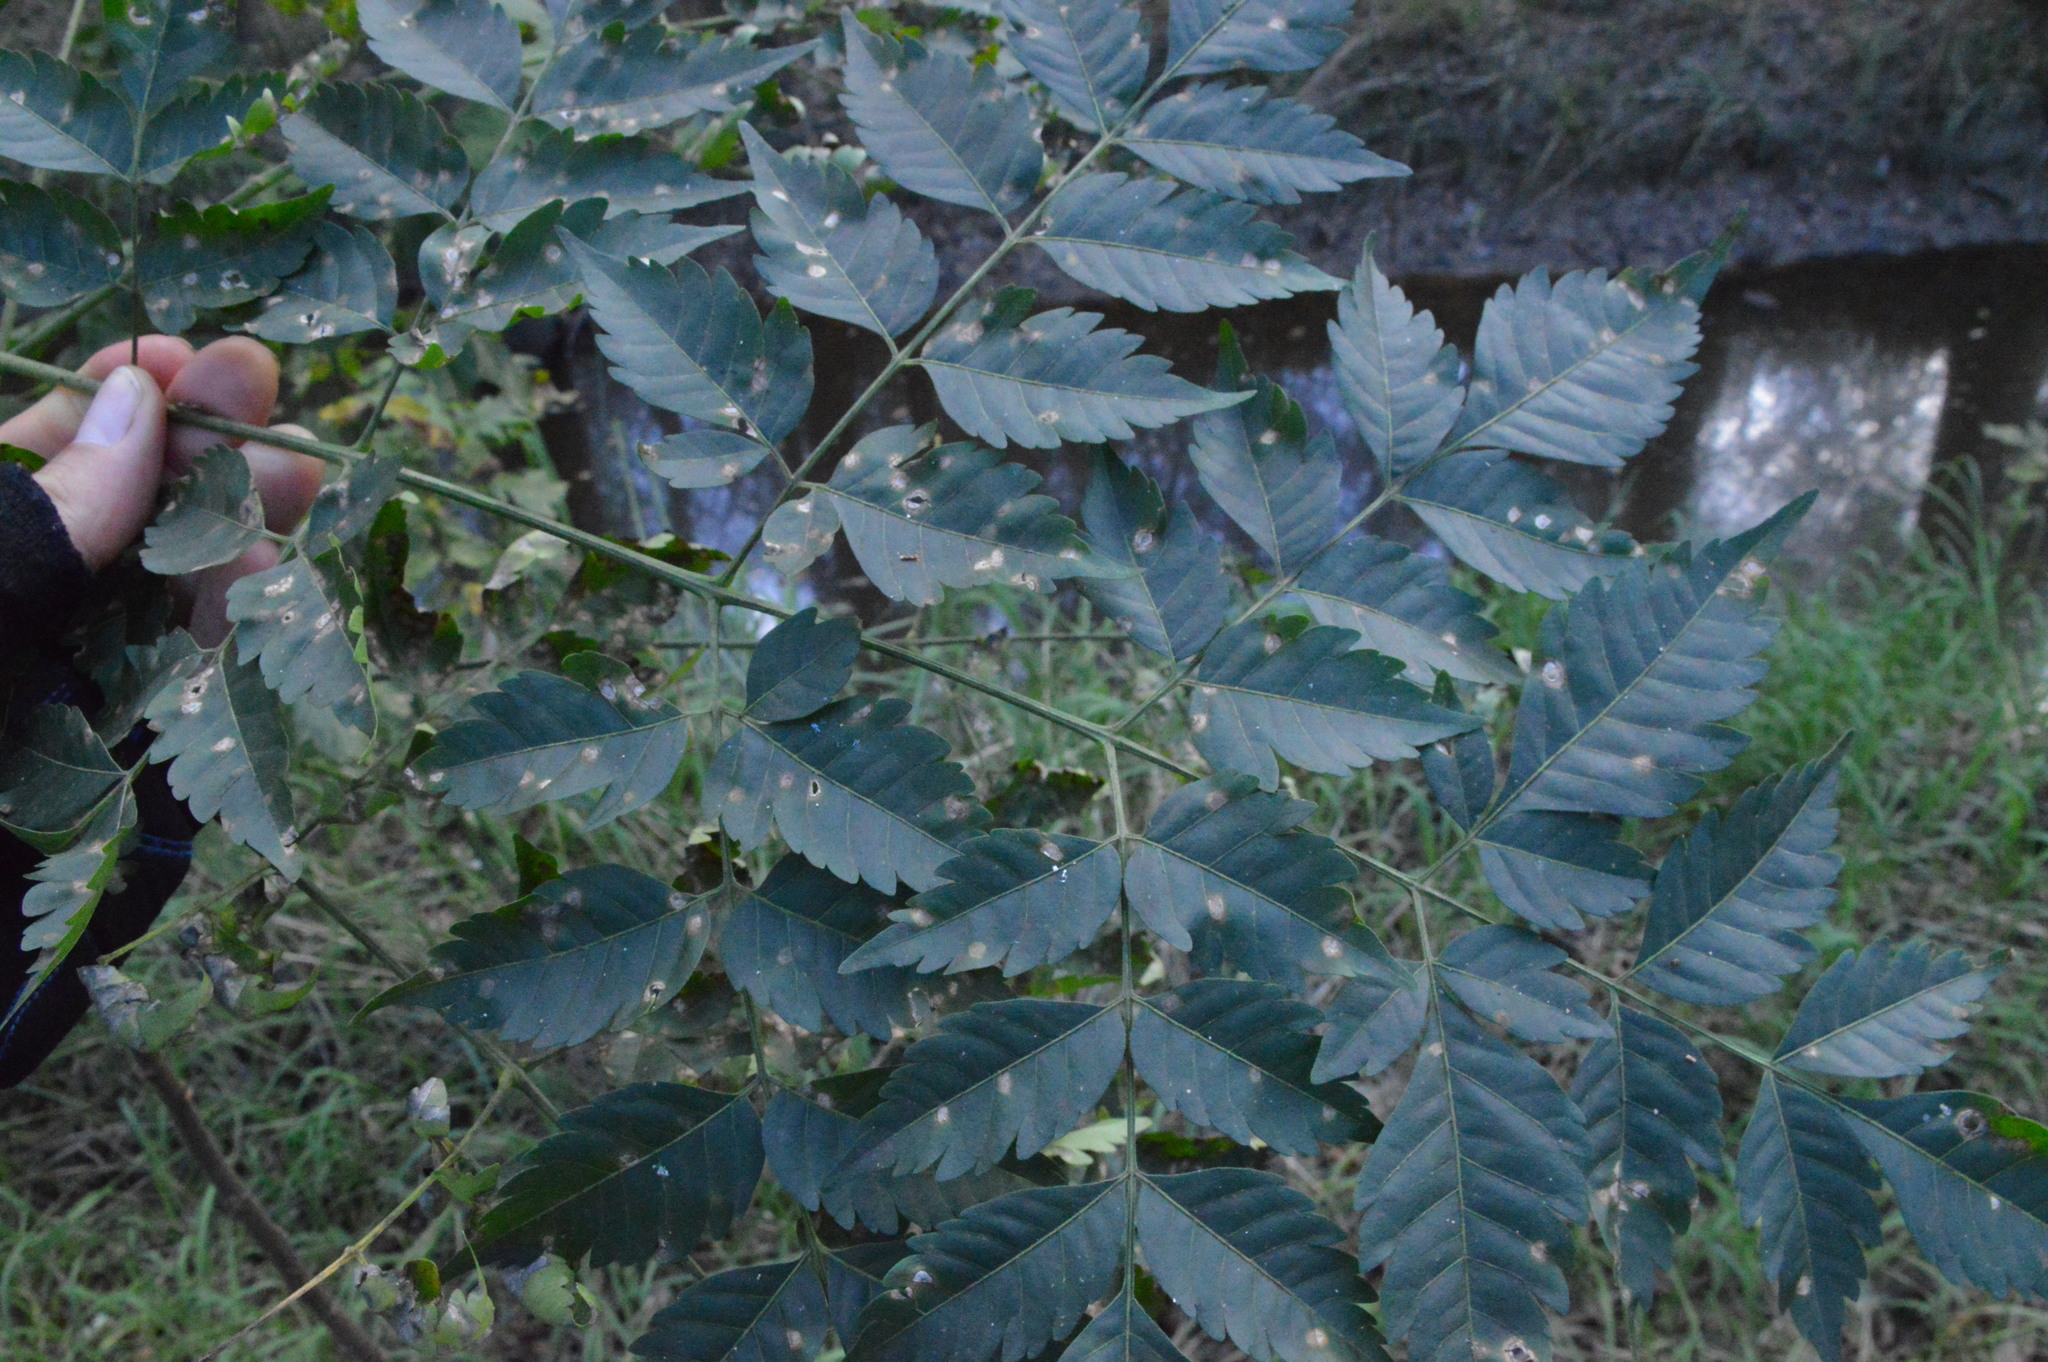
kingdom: Plantae
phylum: Tracheophyta
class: Magnoliopsida
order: Sapindales
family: Meliaceae
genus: Melia
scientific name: Melia azedarach
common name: Chinaberrytree
